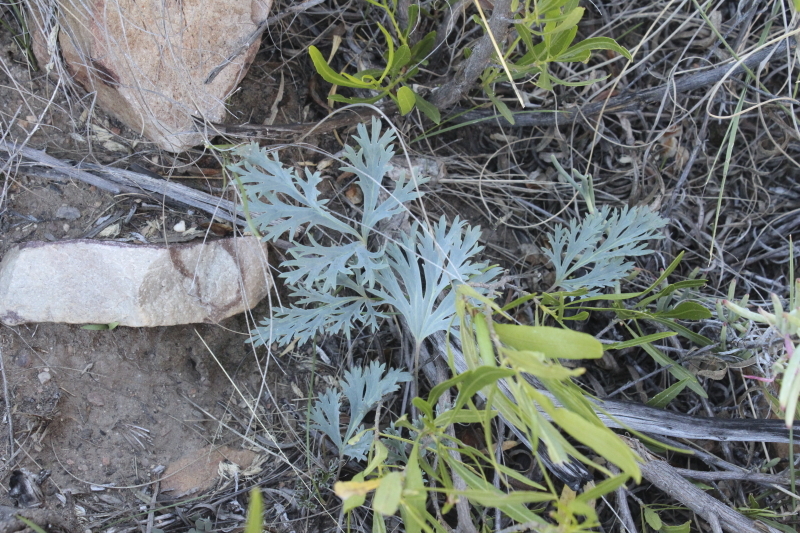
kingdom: Plantae
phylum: Tracheophyta
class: Magnoliopsida
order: Geraniales
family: Geraniaceae
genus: Pelargonium
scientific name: Pelargonium pillansii
